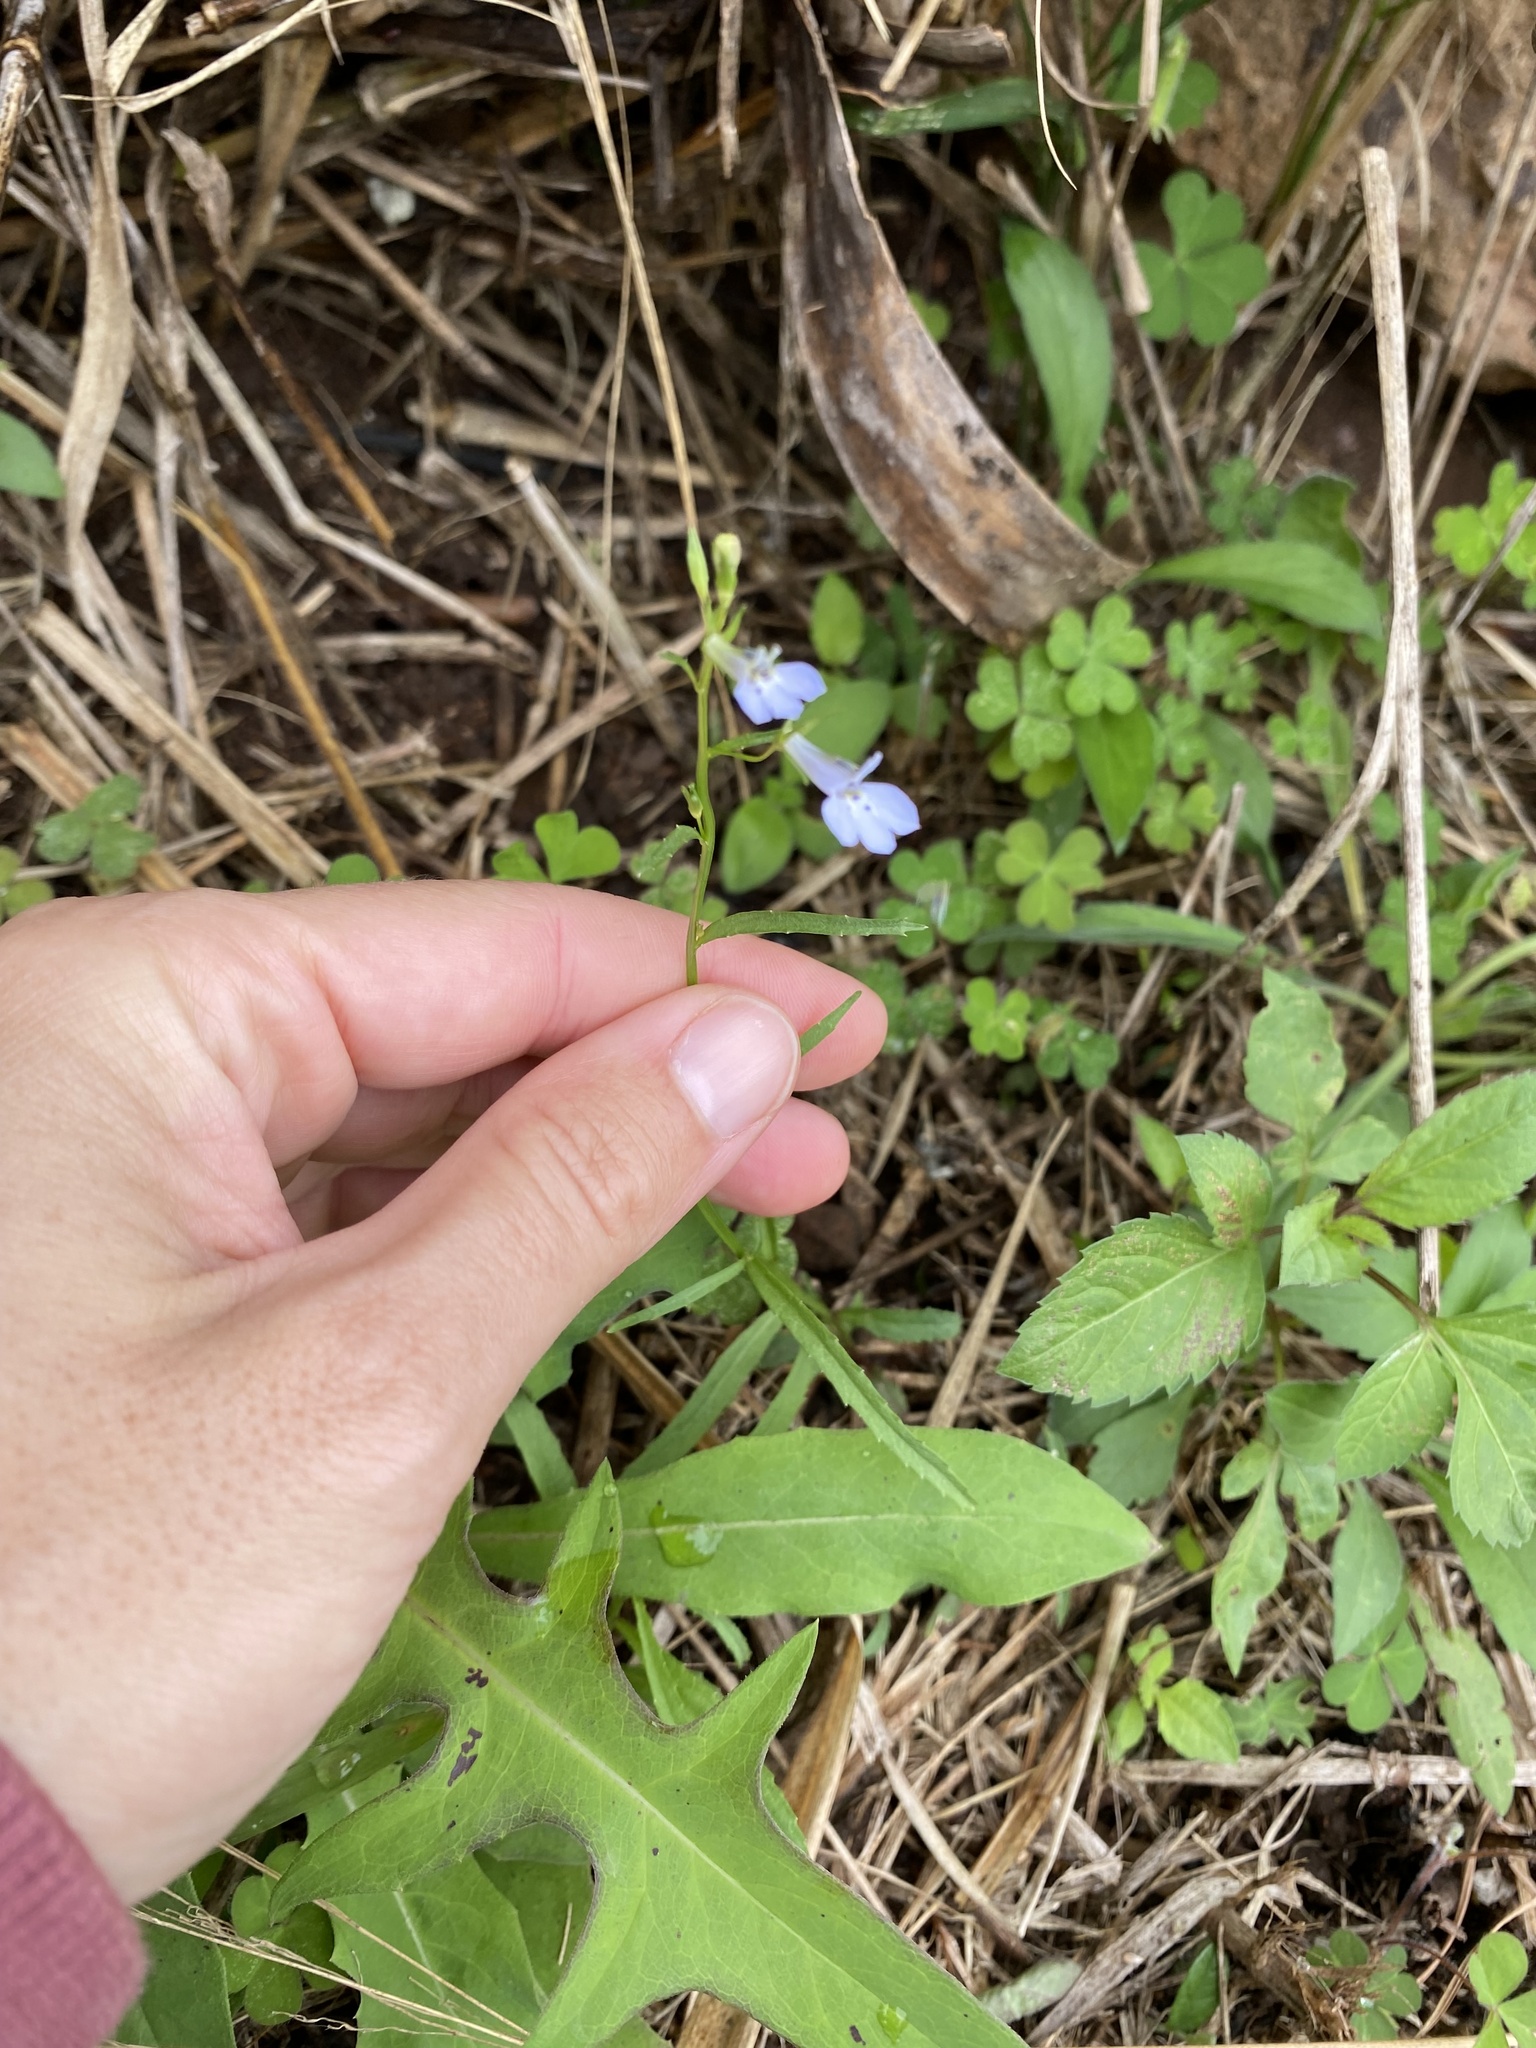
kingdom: Plantae
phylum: Tracheophyta
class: Magnoliopsida
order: Asterales
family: Campanulaceae
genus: Lobelia
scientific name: Lobelia flaccida
